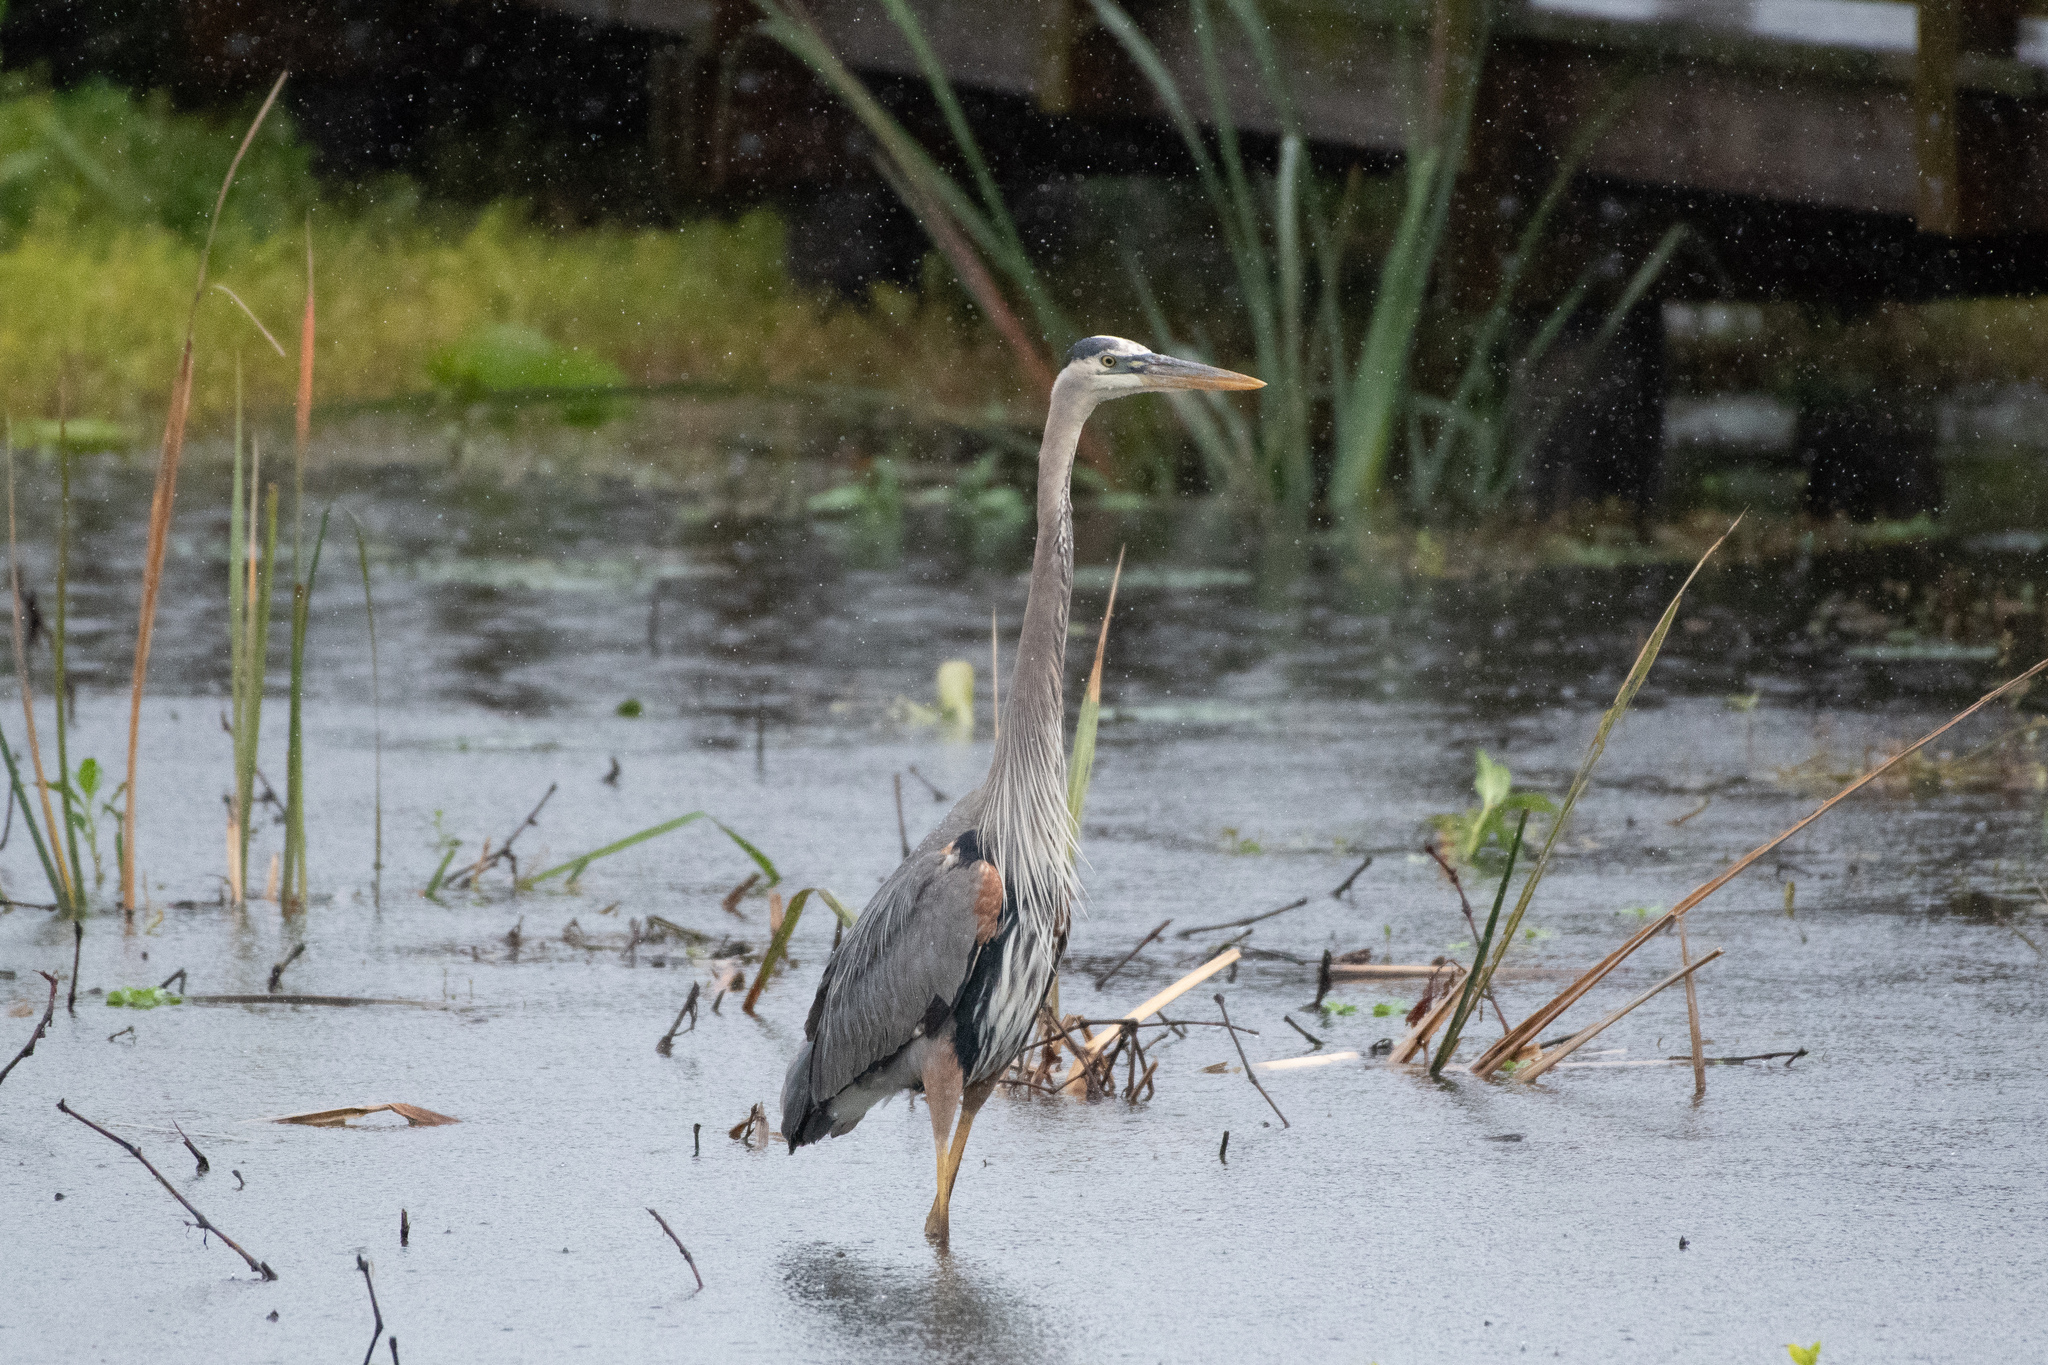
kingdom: Animalia
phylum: Chordata
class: Aves
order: Pelecaniformes
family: Ardeidae
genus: Ardea
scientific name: Ardea herodias
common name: Great blue heron
